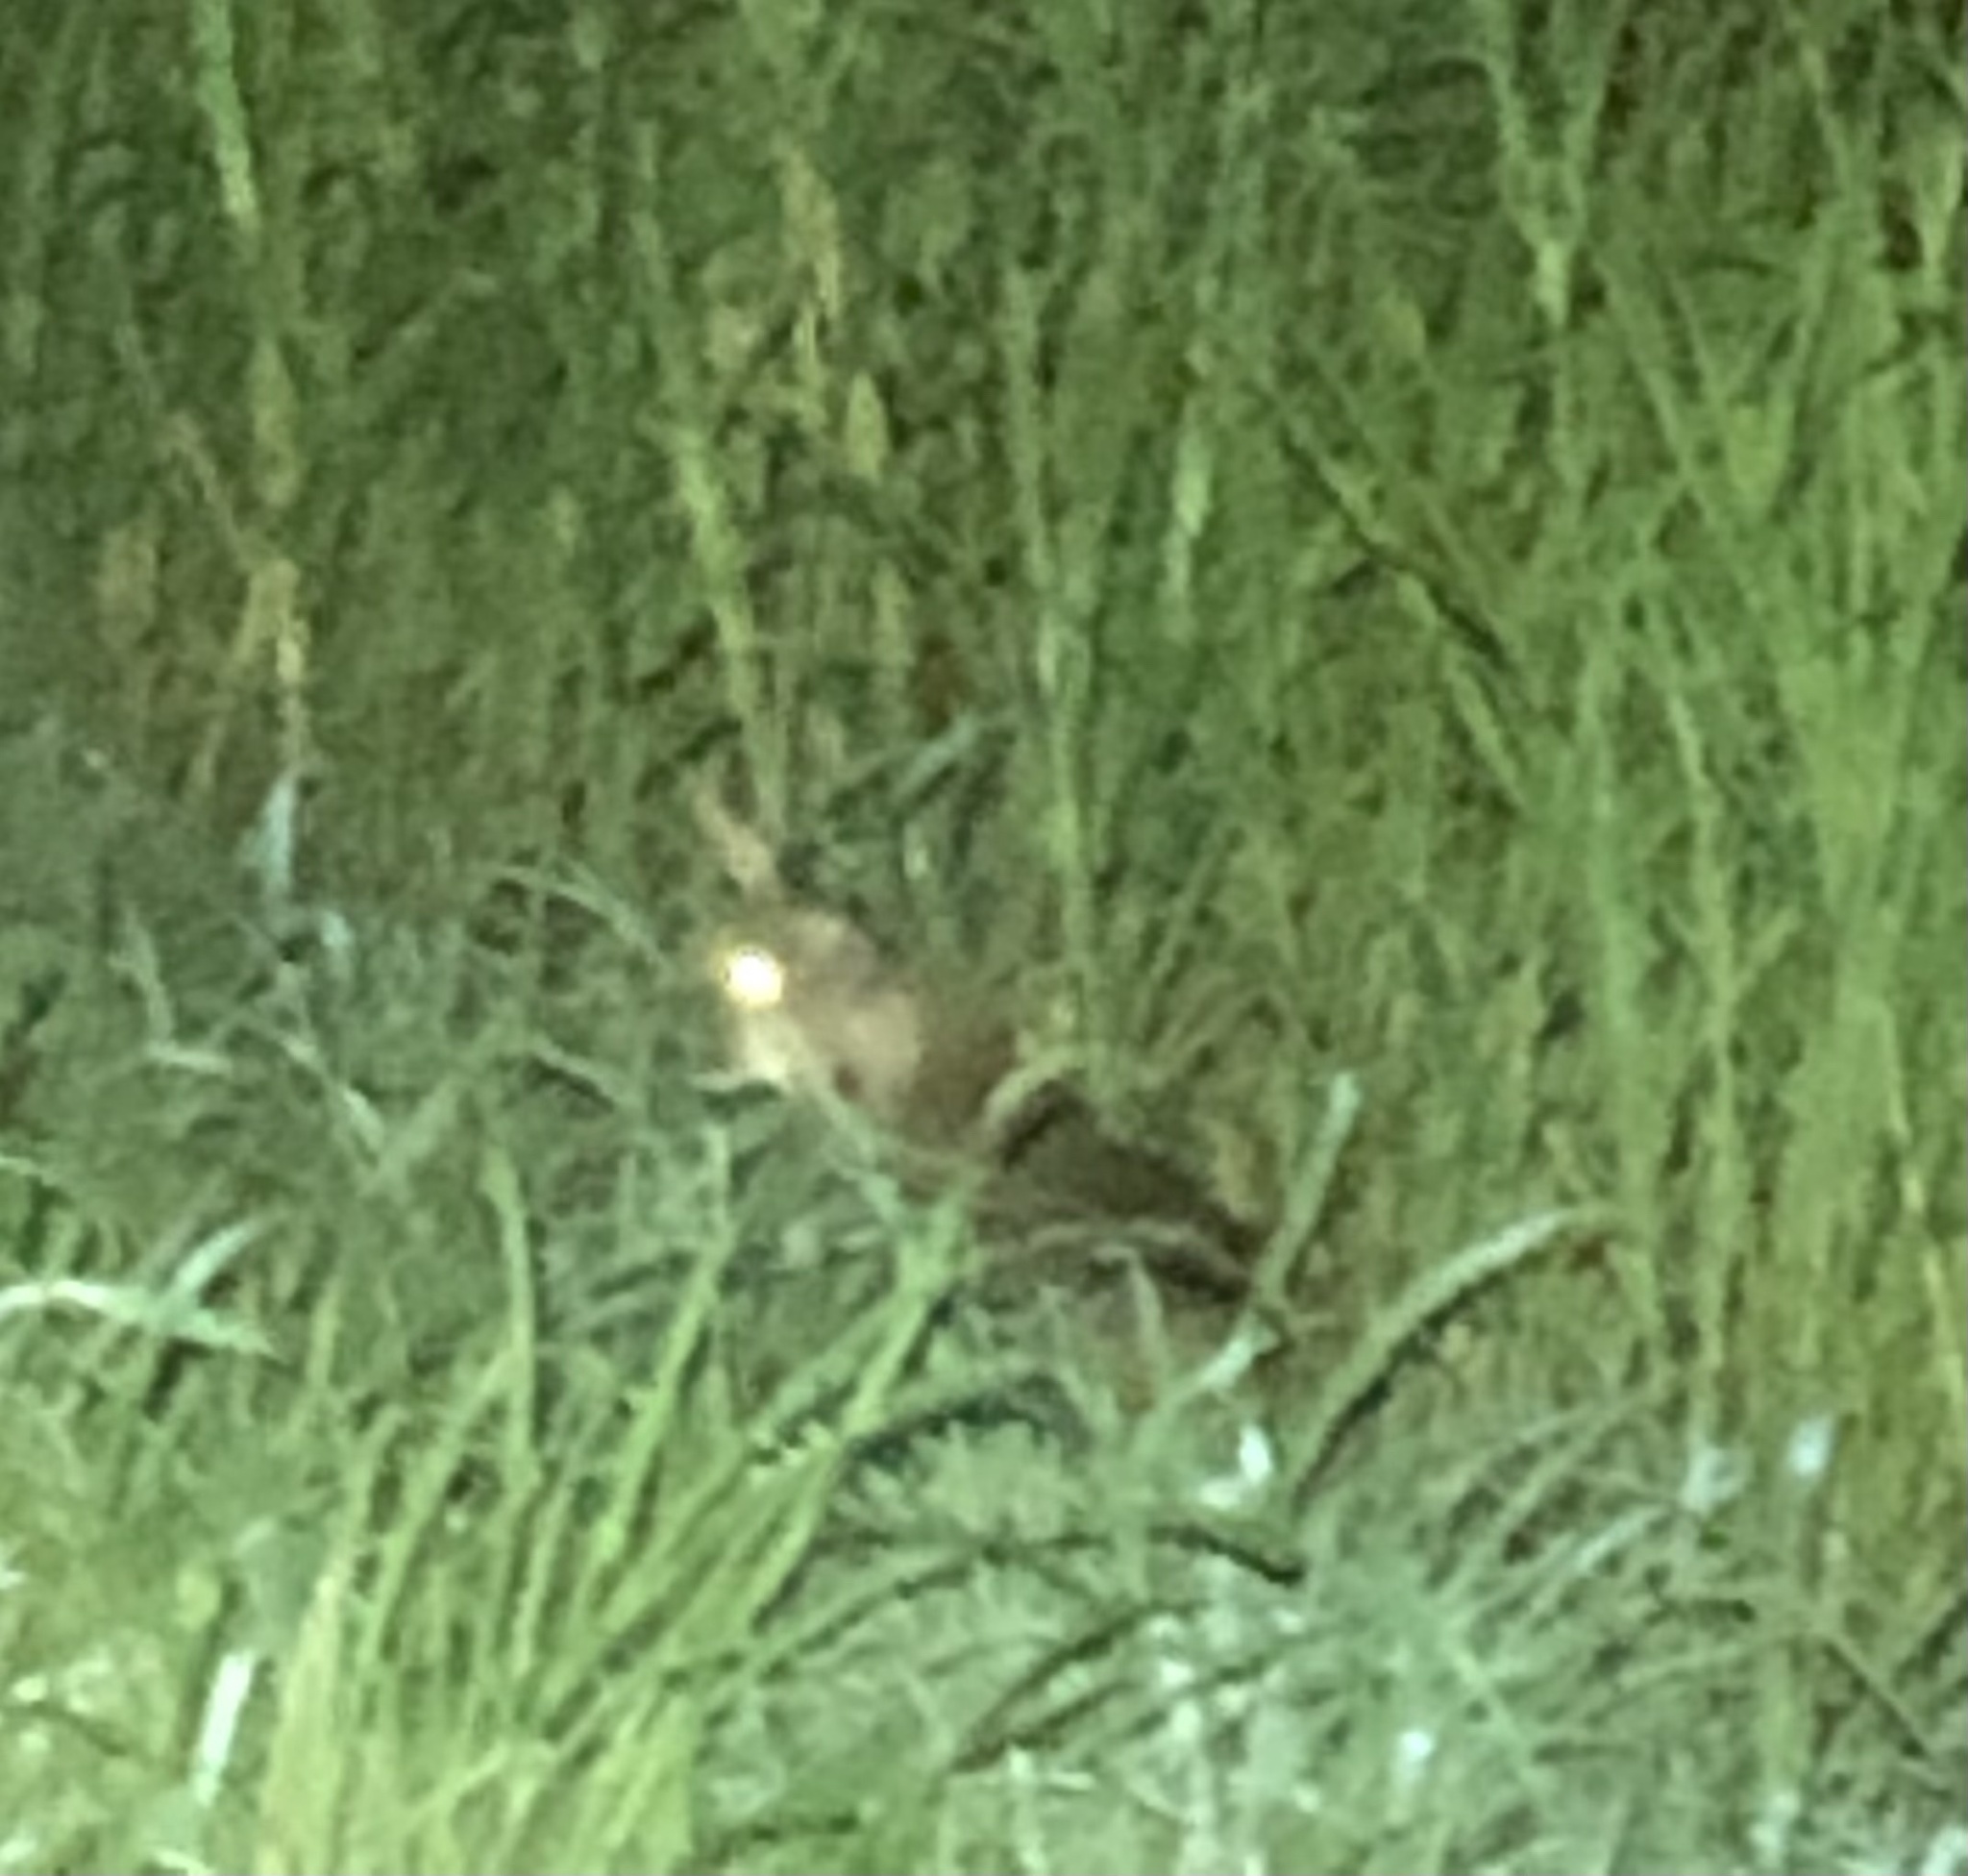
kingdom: Animalia
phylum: Chordata
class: Mammalia
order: Carnivora
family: Felidae
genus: Lynx
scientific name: Lynx rufus
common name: Bobcat
